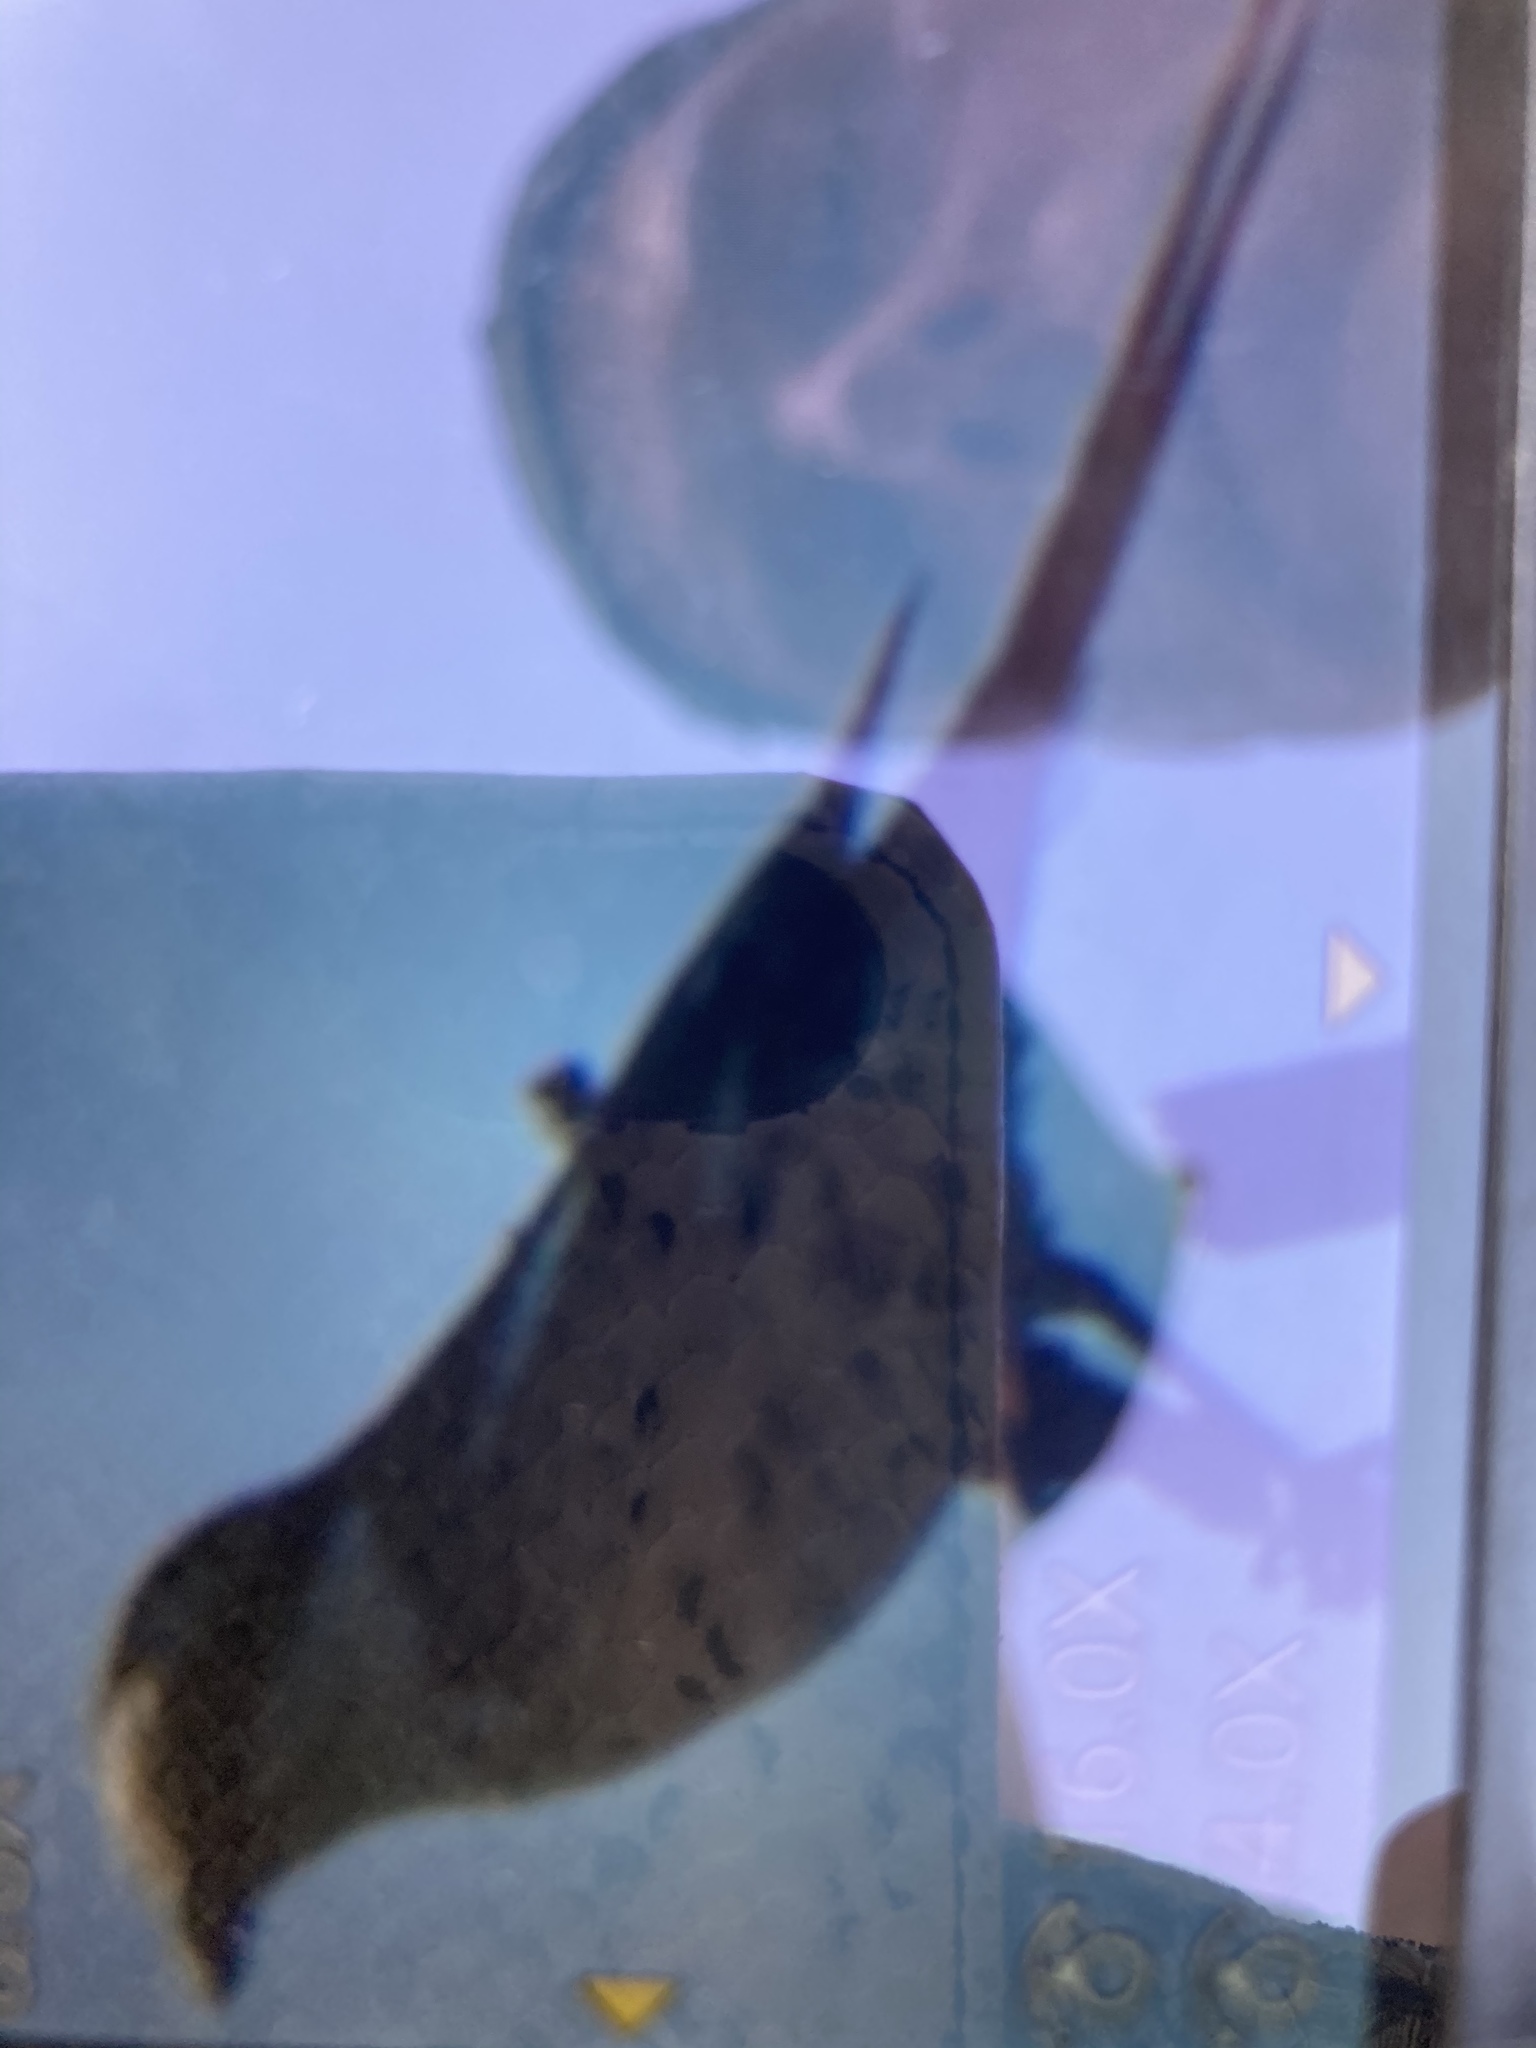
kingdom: Animalia
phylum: Chordata
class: Aves
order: Passeriformes
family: Laniidae
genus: Lanius
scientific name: Lanius nubicus
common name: Masked shrike
